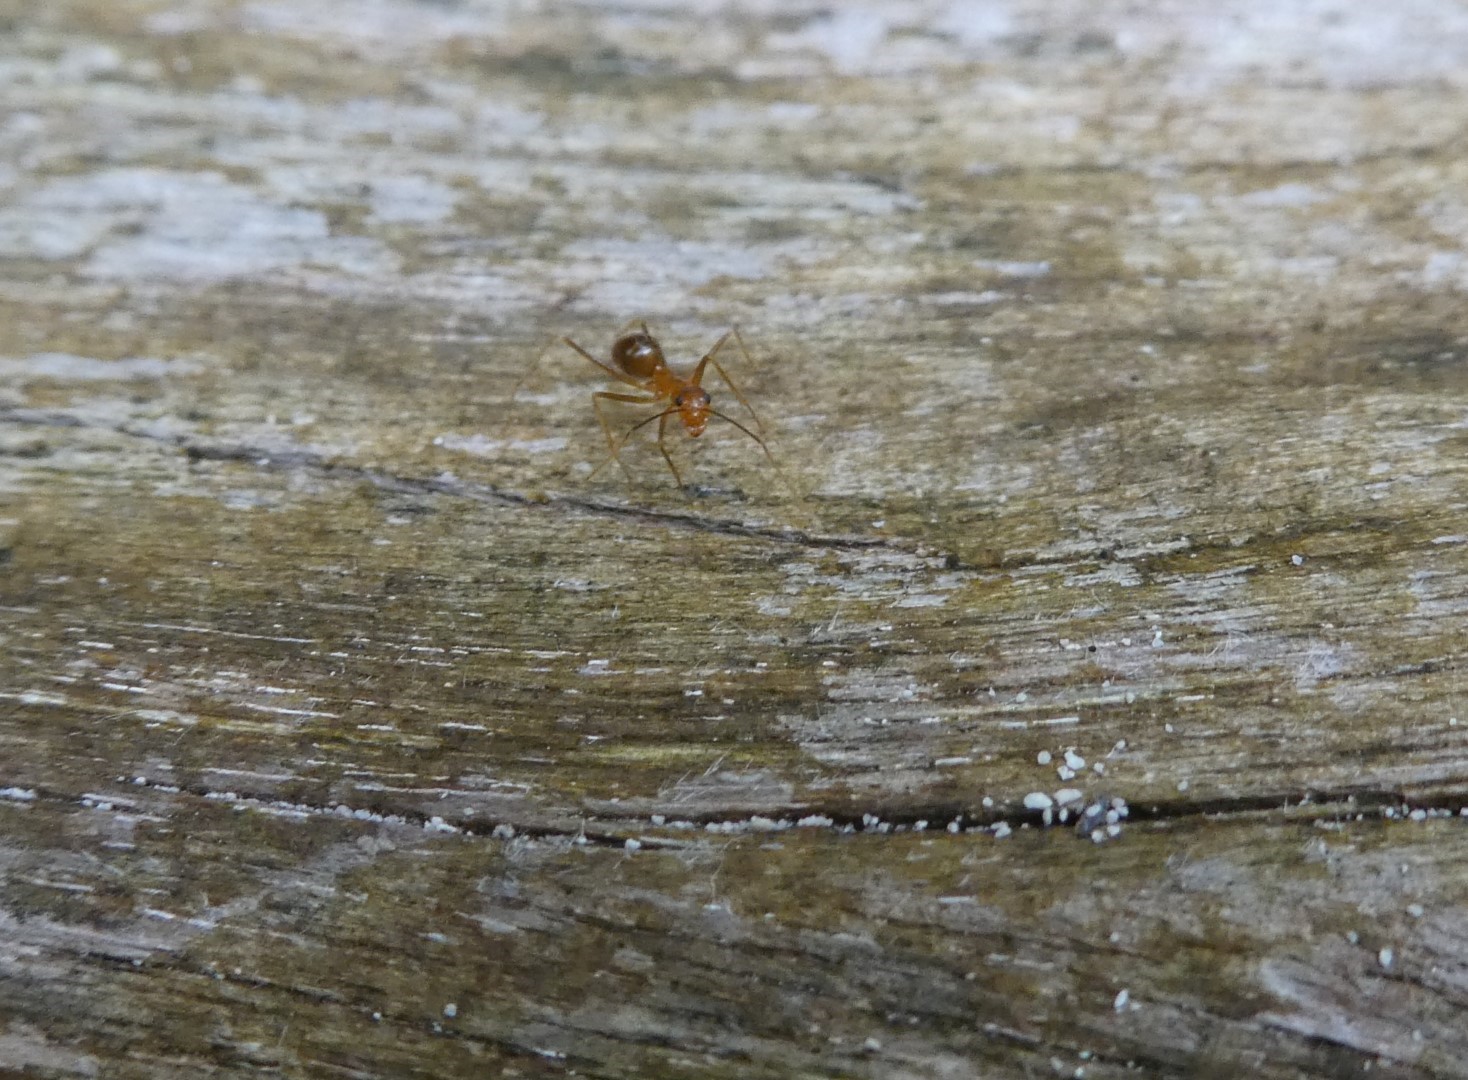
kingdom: Animalia
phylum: Arthropoda
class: Insecta
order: Hymenoptera
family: Formicidae
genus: Anoplolepis
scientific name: Anoplolepis gracilipes
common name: Ant
